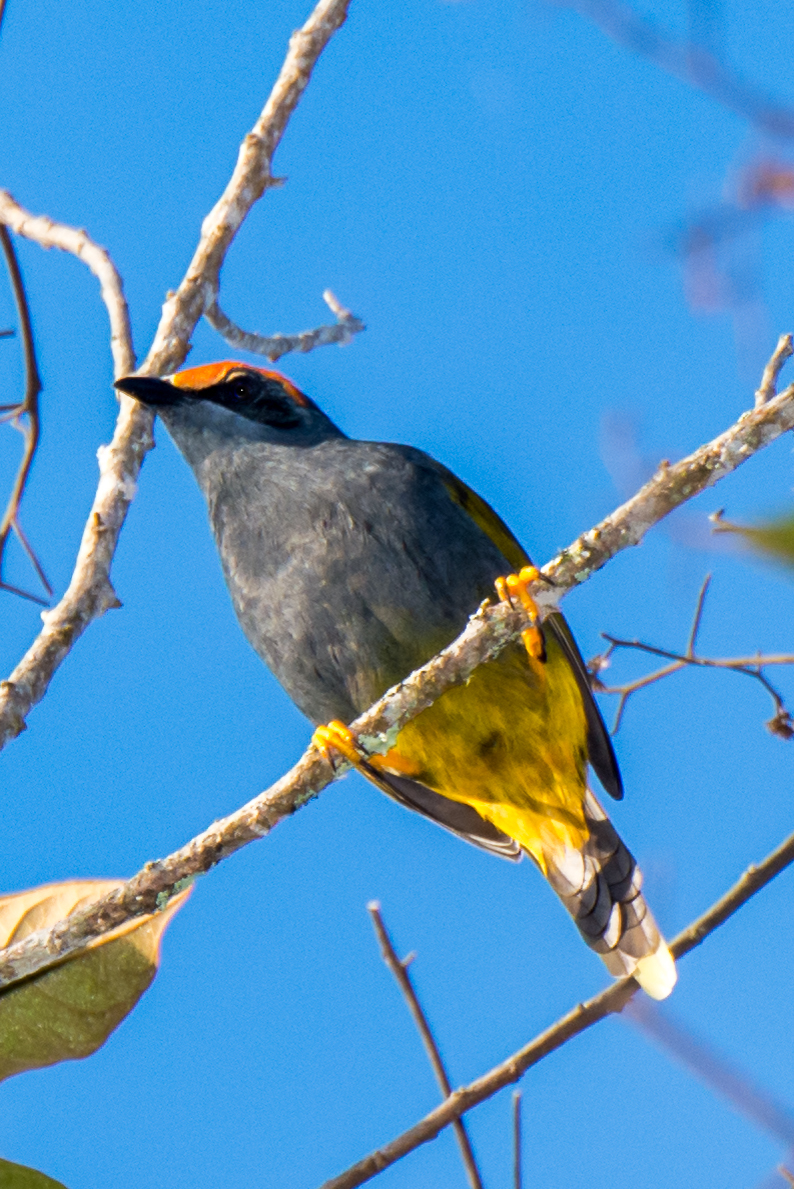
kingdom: Animalia
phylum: Chordata
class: Aves
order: Passeriformes
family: Sturnidae
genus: Enodes
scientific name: Enodes erythrophris
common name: Fiery-browed starling
